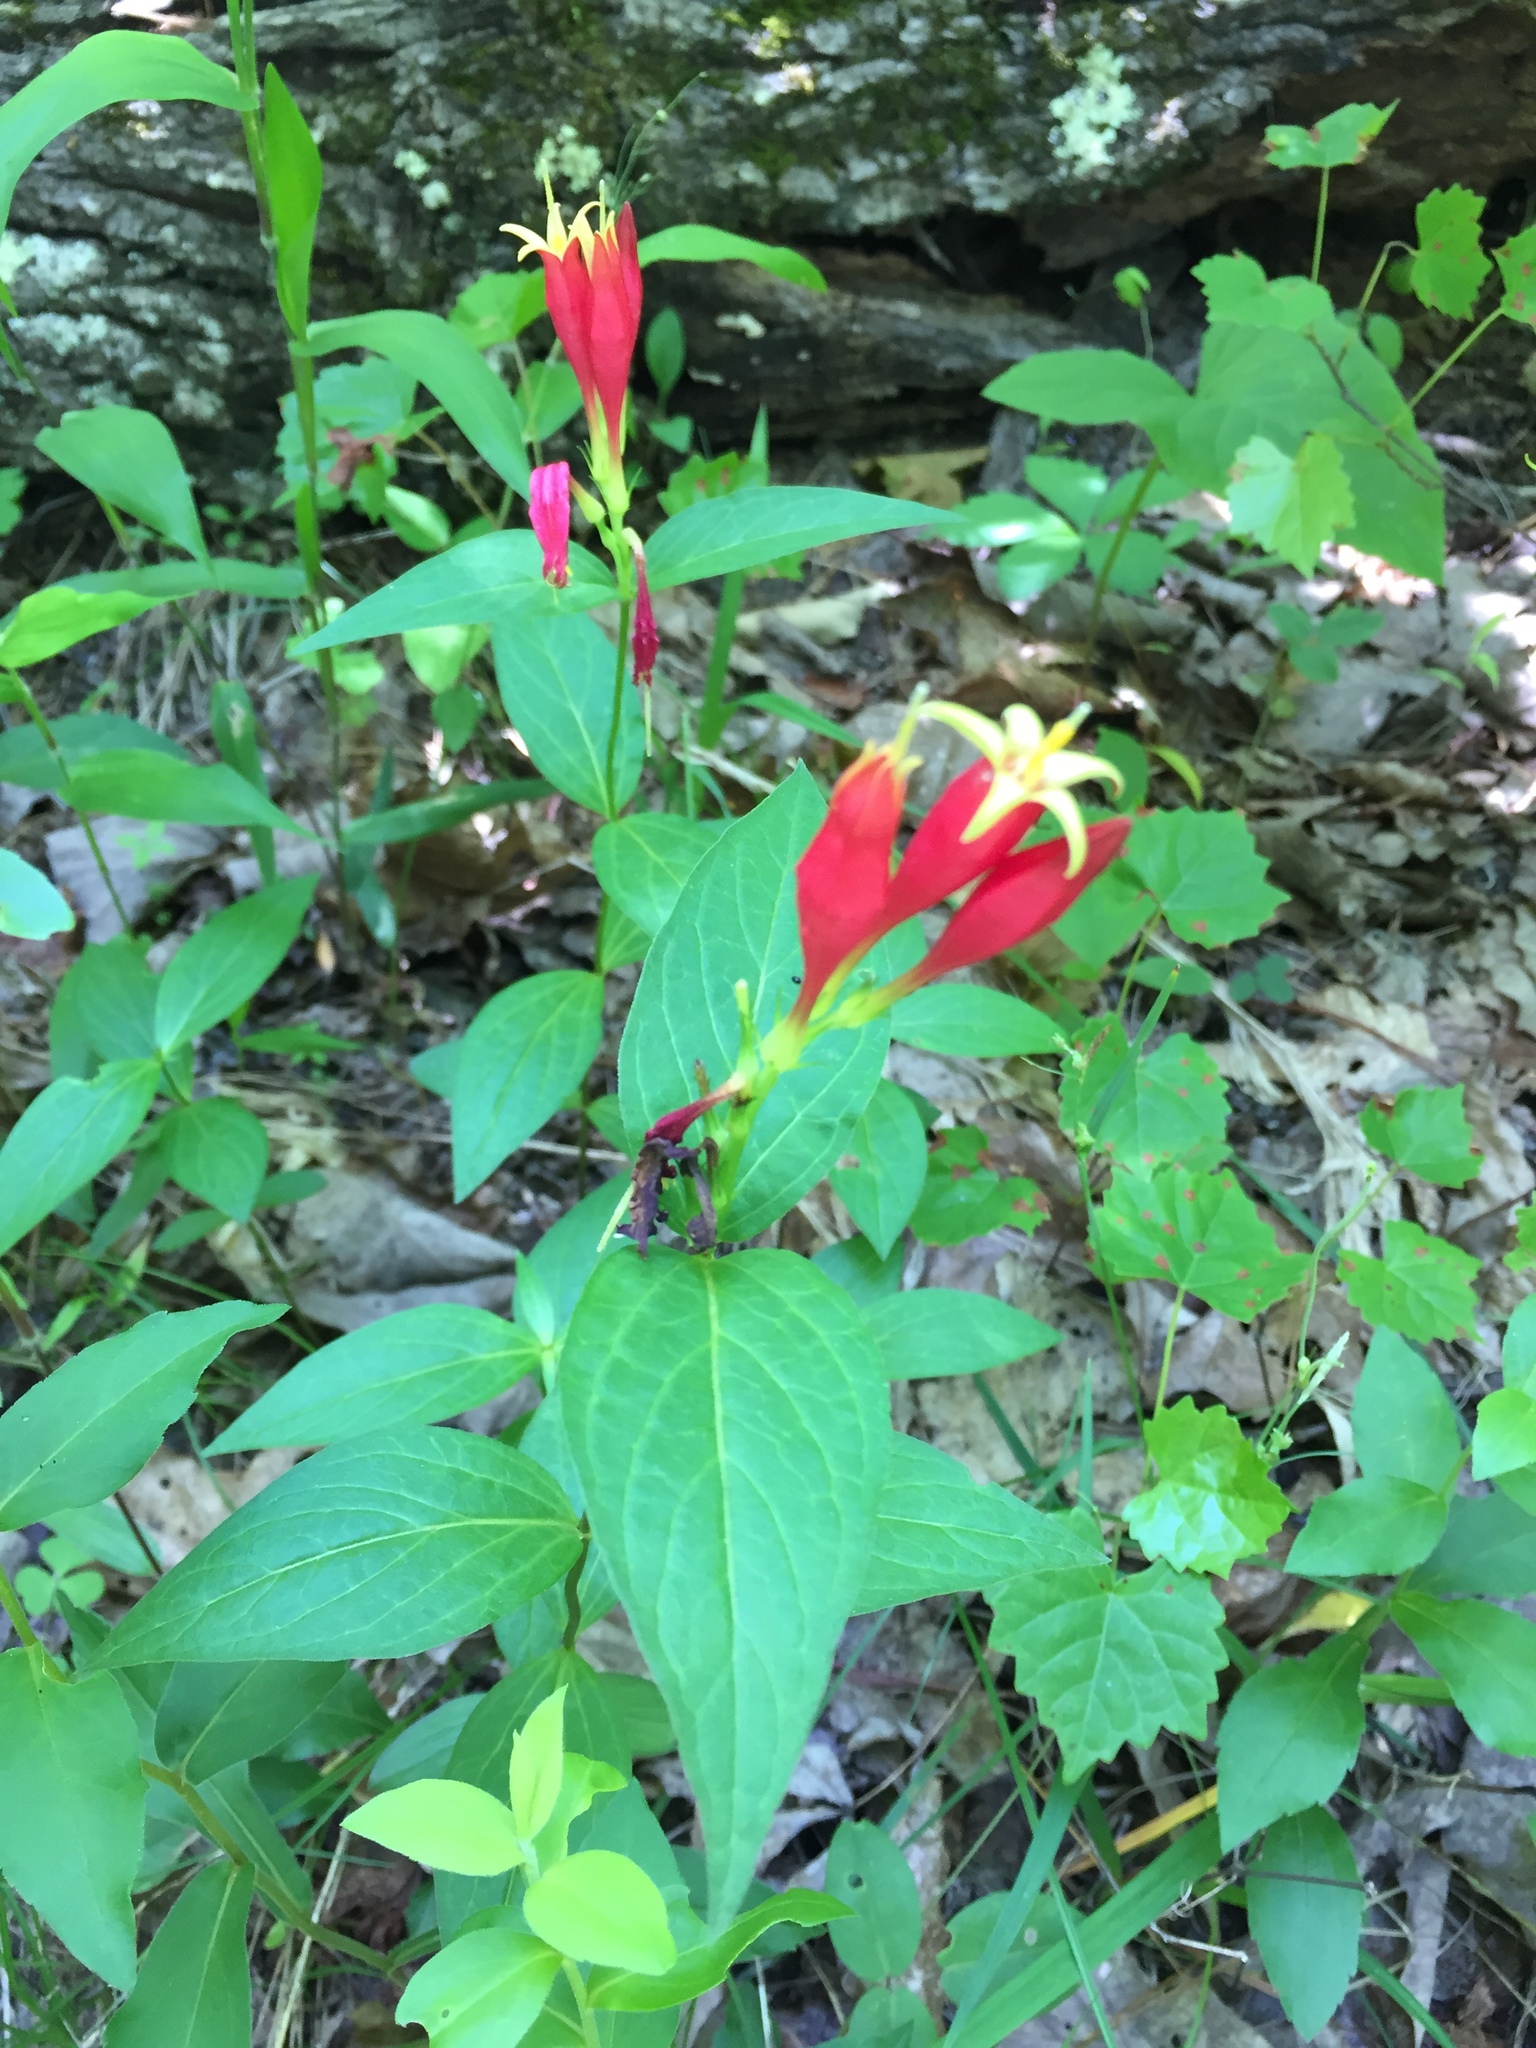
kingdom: Plantae
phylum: Tracheophyta
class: Magnoliopsida
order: Gentianales
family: Loganiaceae
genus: Spigelia
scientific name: Spigelia marilandica
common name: Indian-pink
